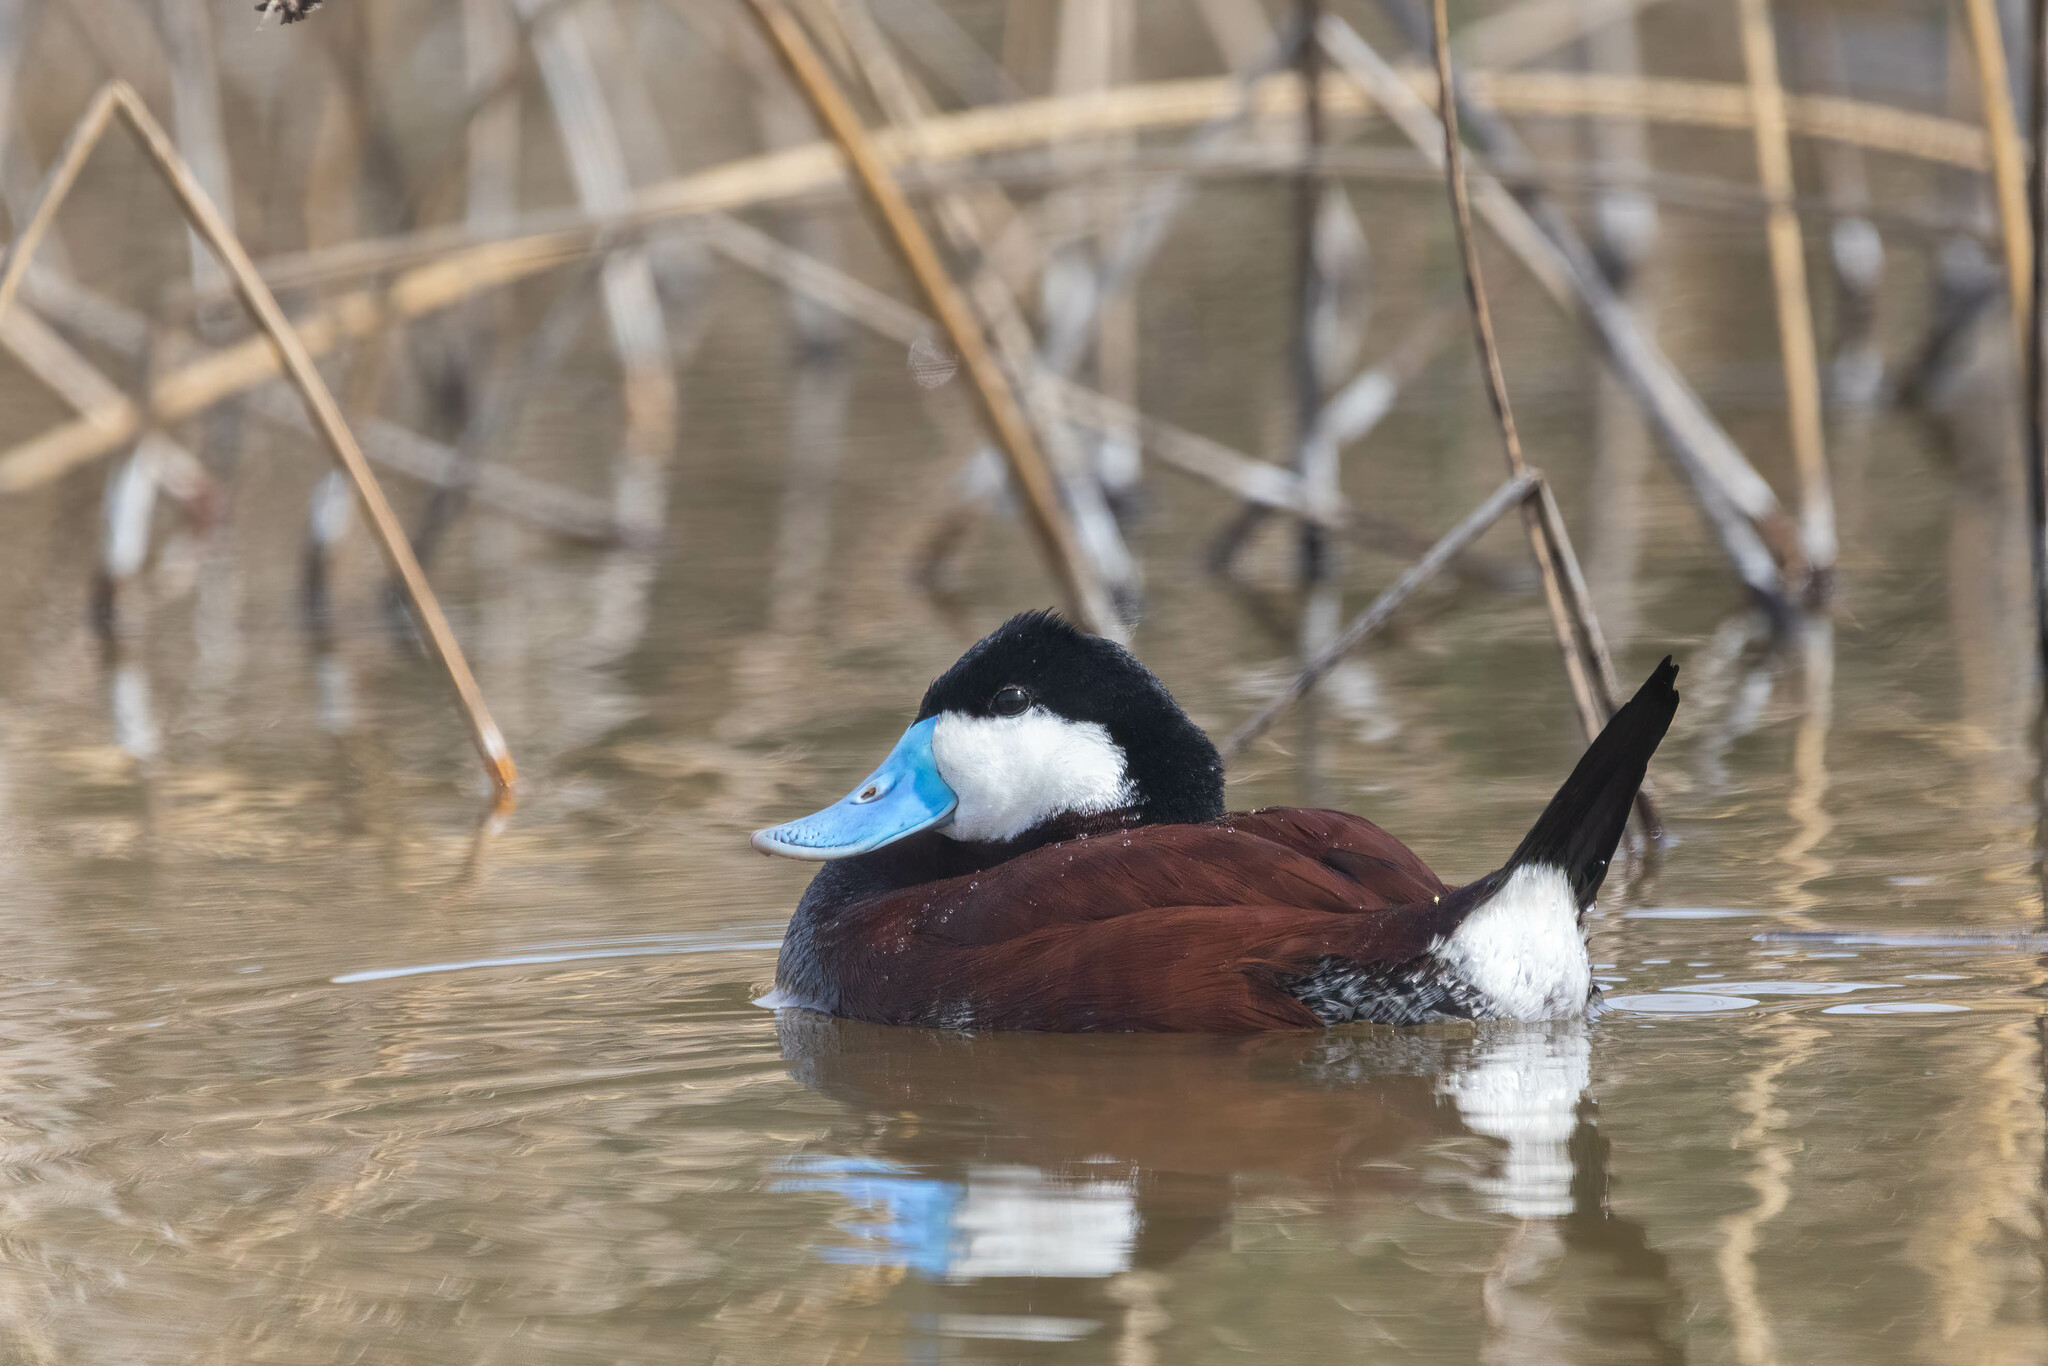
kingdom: Animalia
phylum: Chordata
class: Aves
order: Anseriformes
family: Anatidae
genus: Oxyura
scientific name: Oxyura jamaicensis
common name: Ruddy duck
